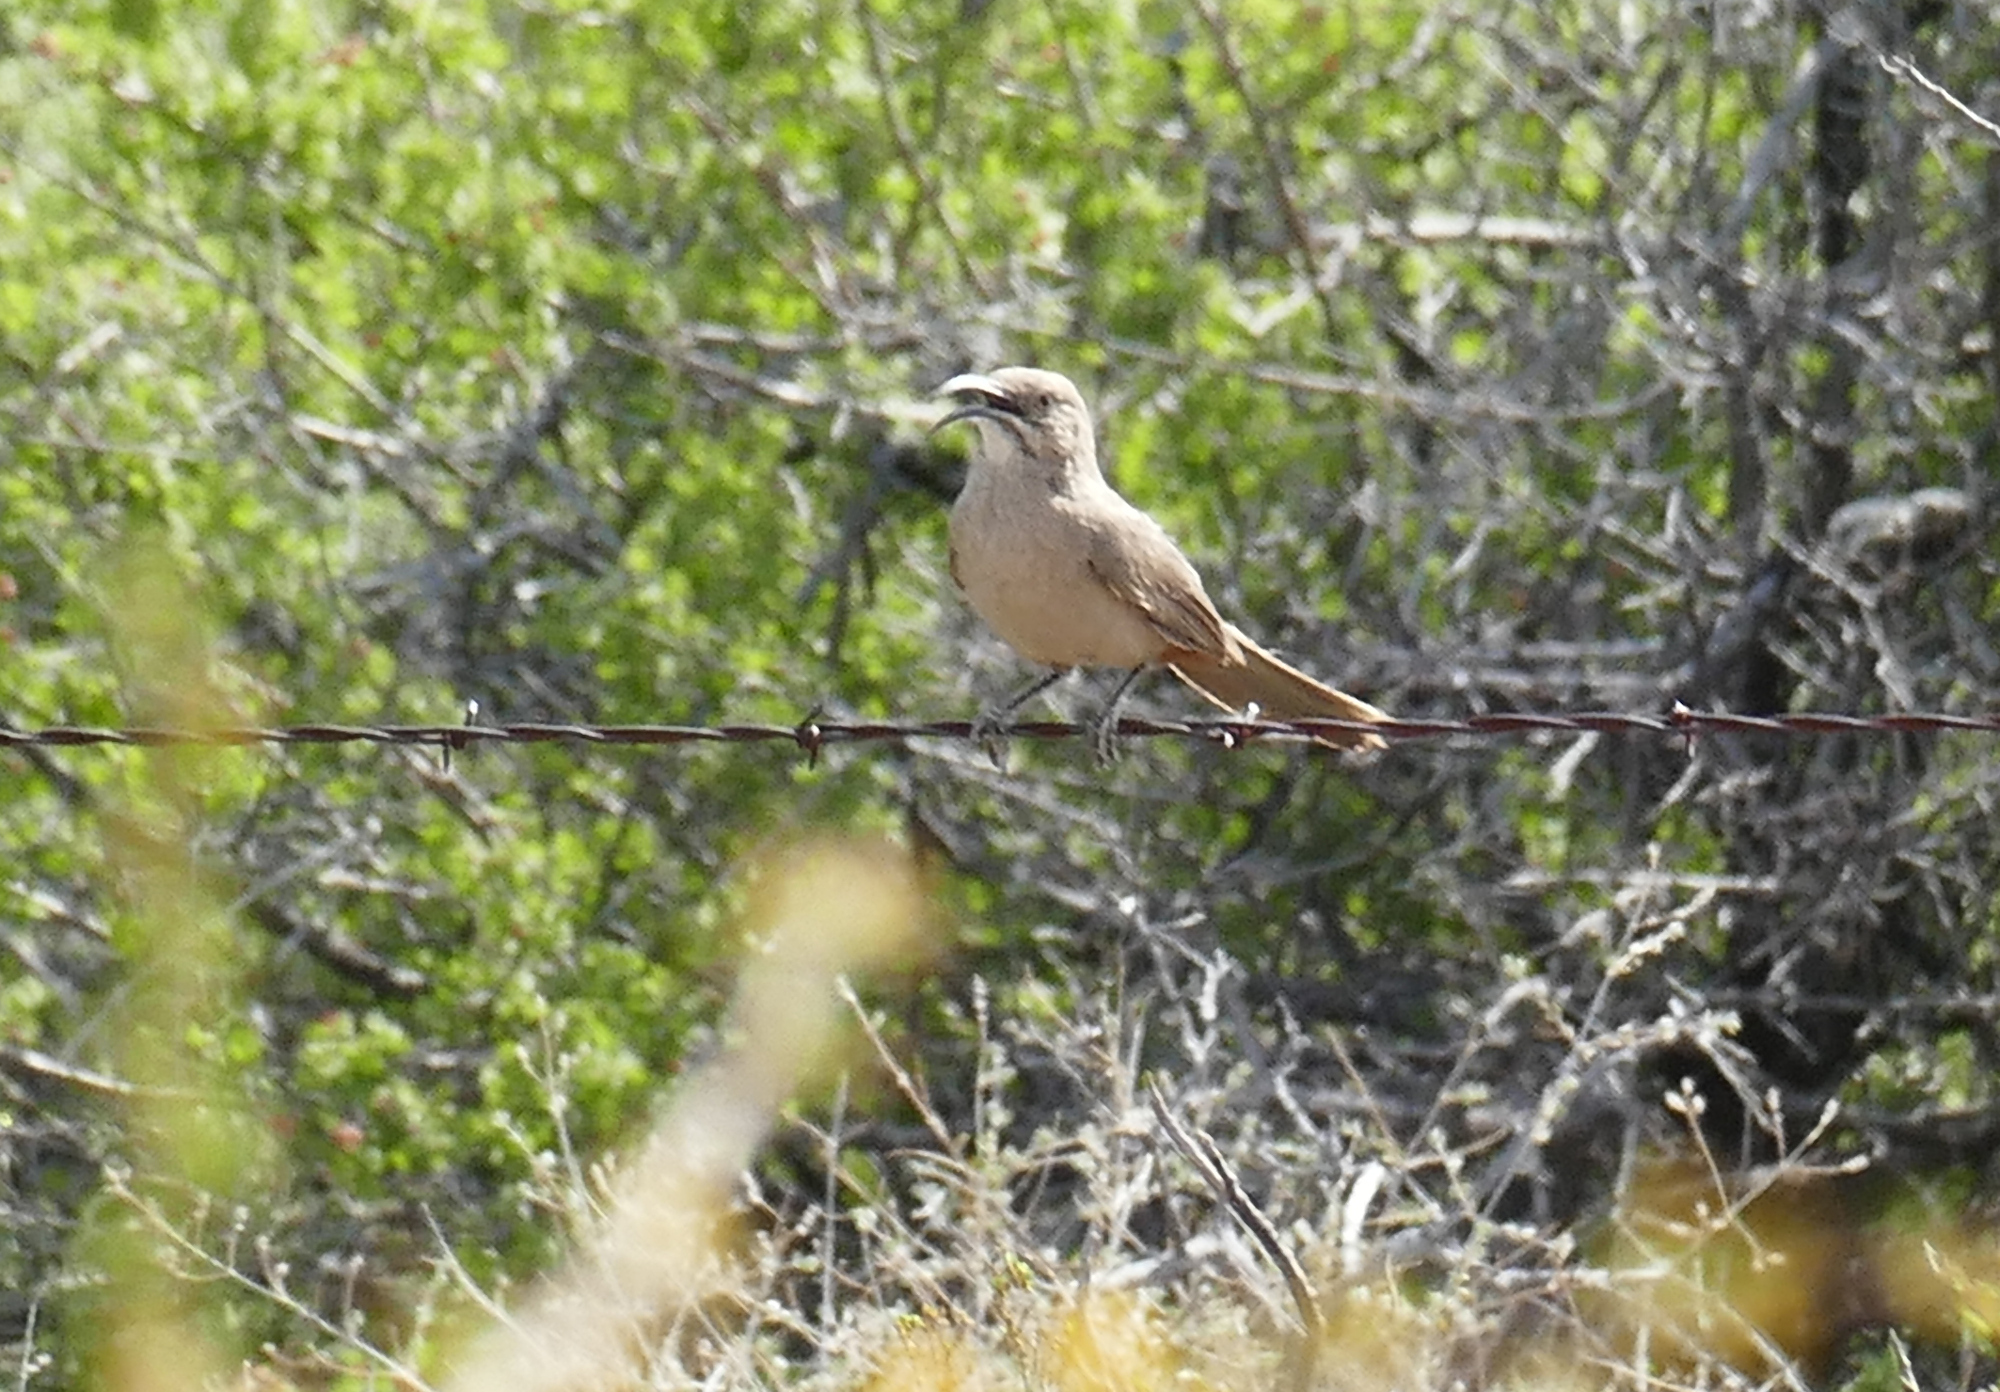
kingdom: Animalia
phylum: Chordata
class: Aves
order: Passeriformes
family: Mimidae
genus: Toxostoma
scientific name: Toxostoma crissale
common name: Crissal thrasher
